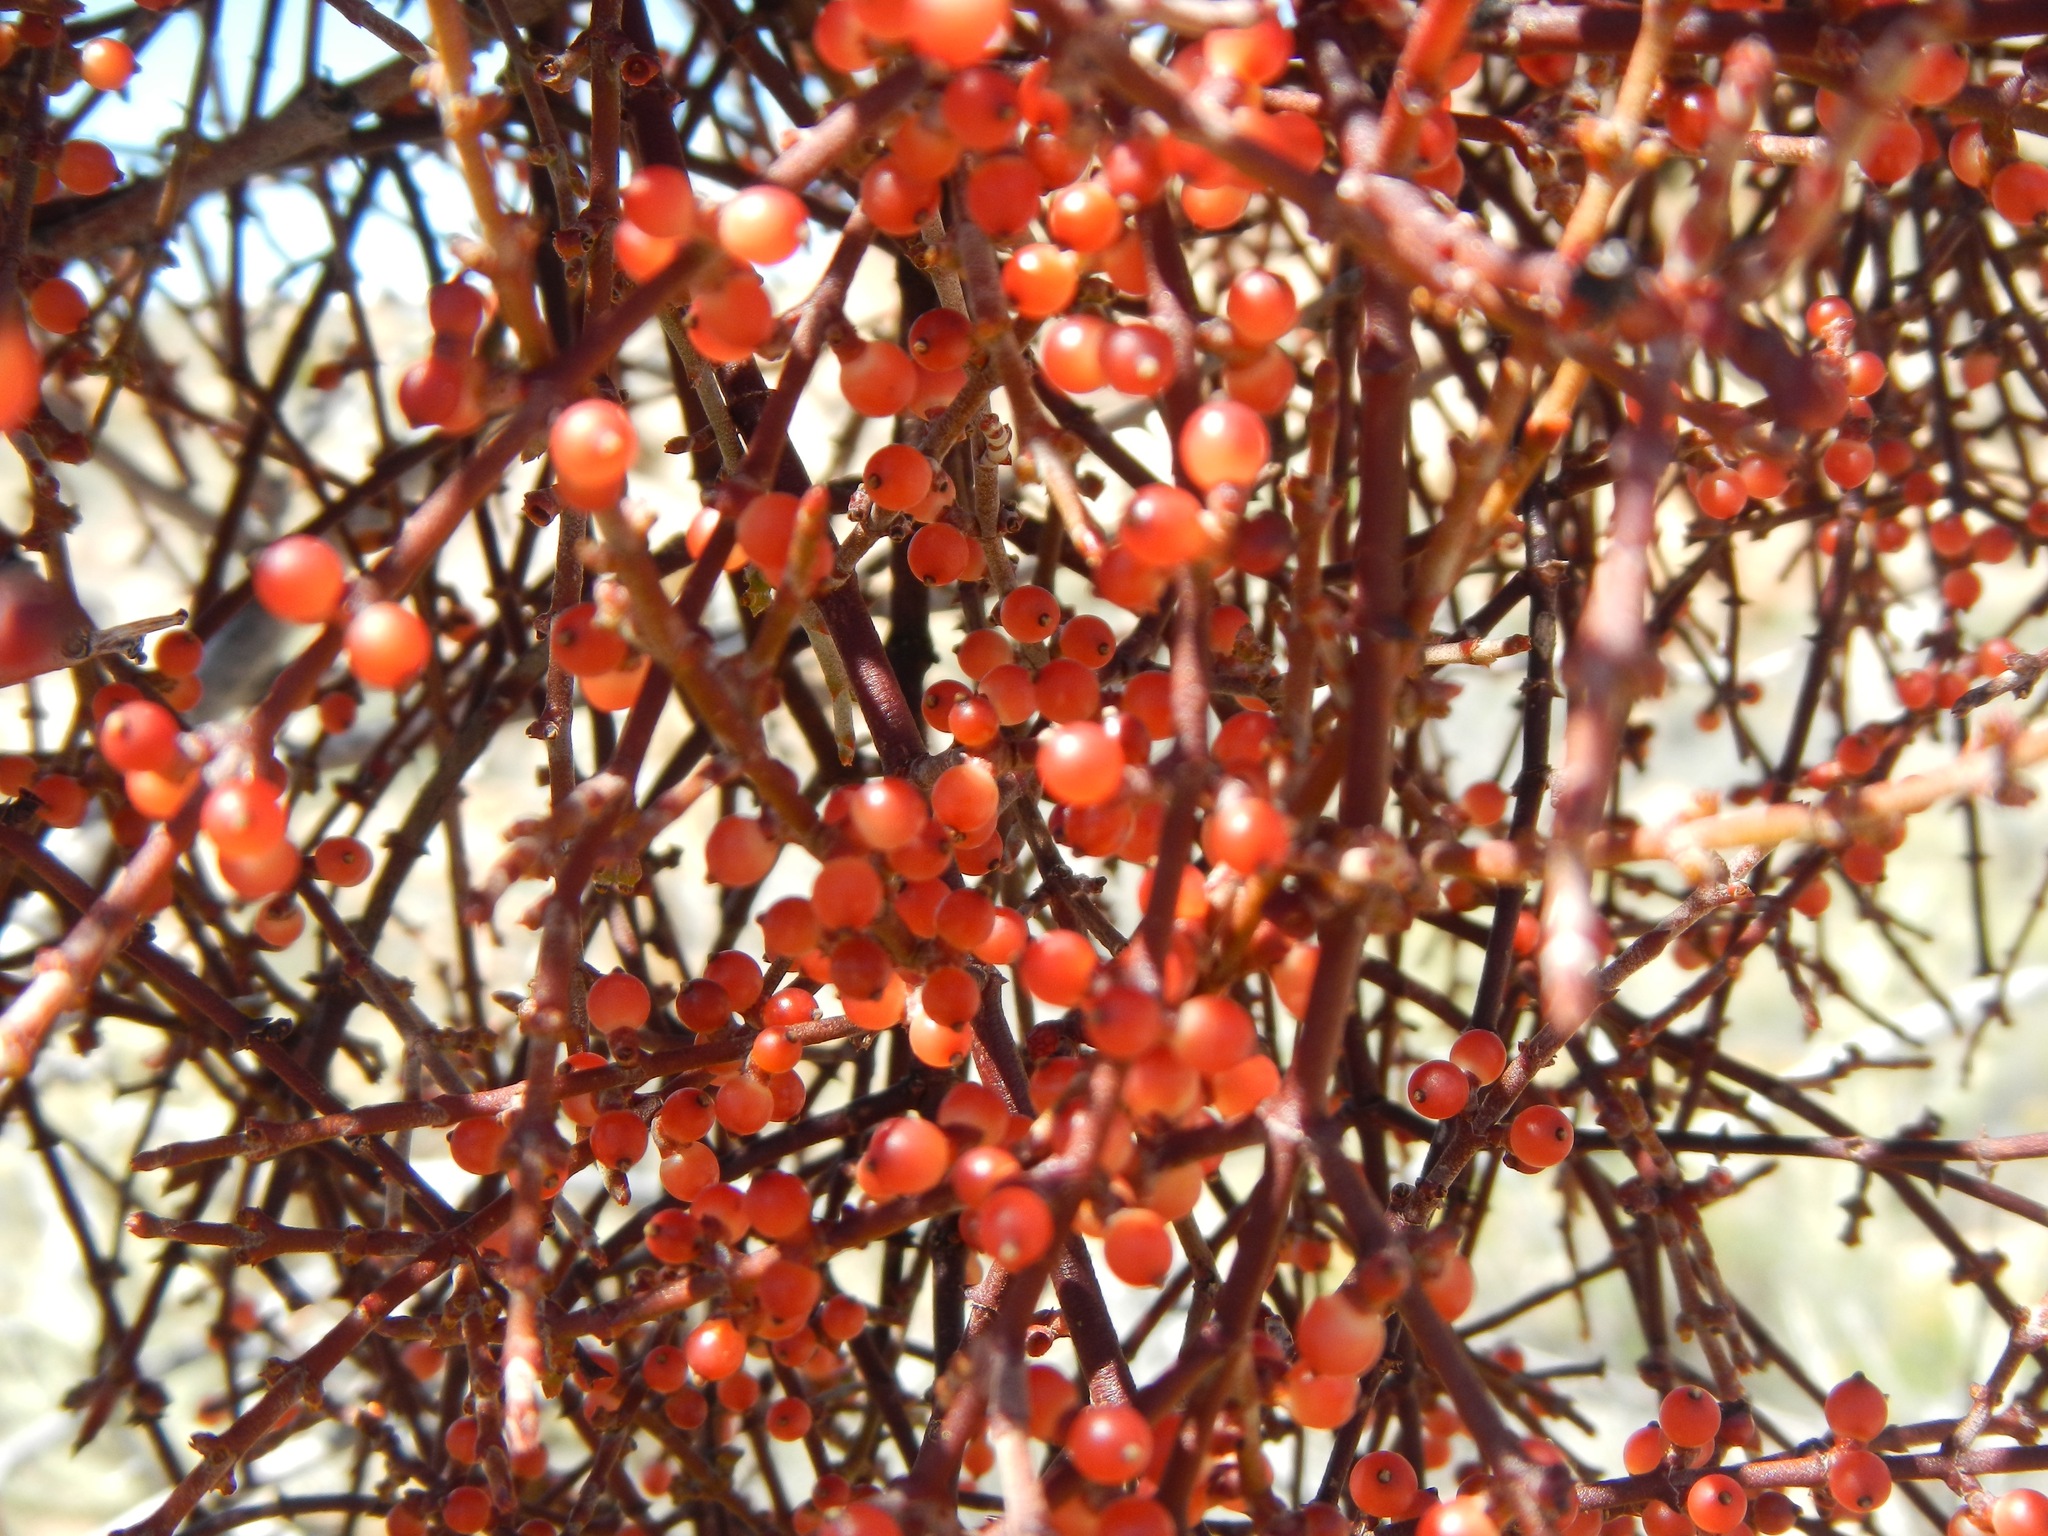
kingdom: Plantae
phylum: Tracheophyta
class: Magnoliopsida
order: Santalales
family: Viscaceae
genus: Phoradendron
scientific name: Phoradendron californicum
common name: Acacia mistletoe
